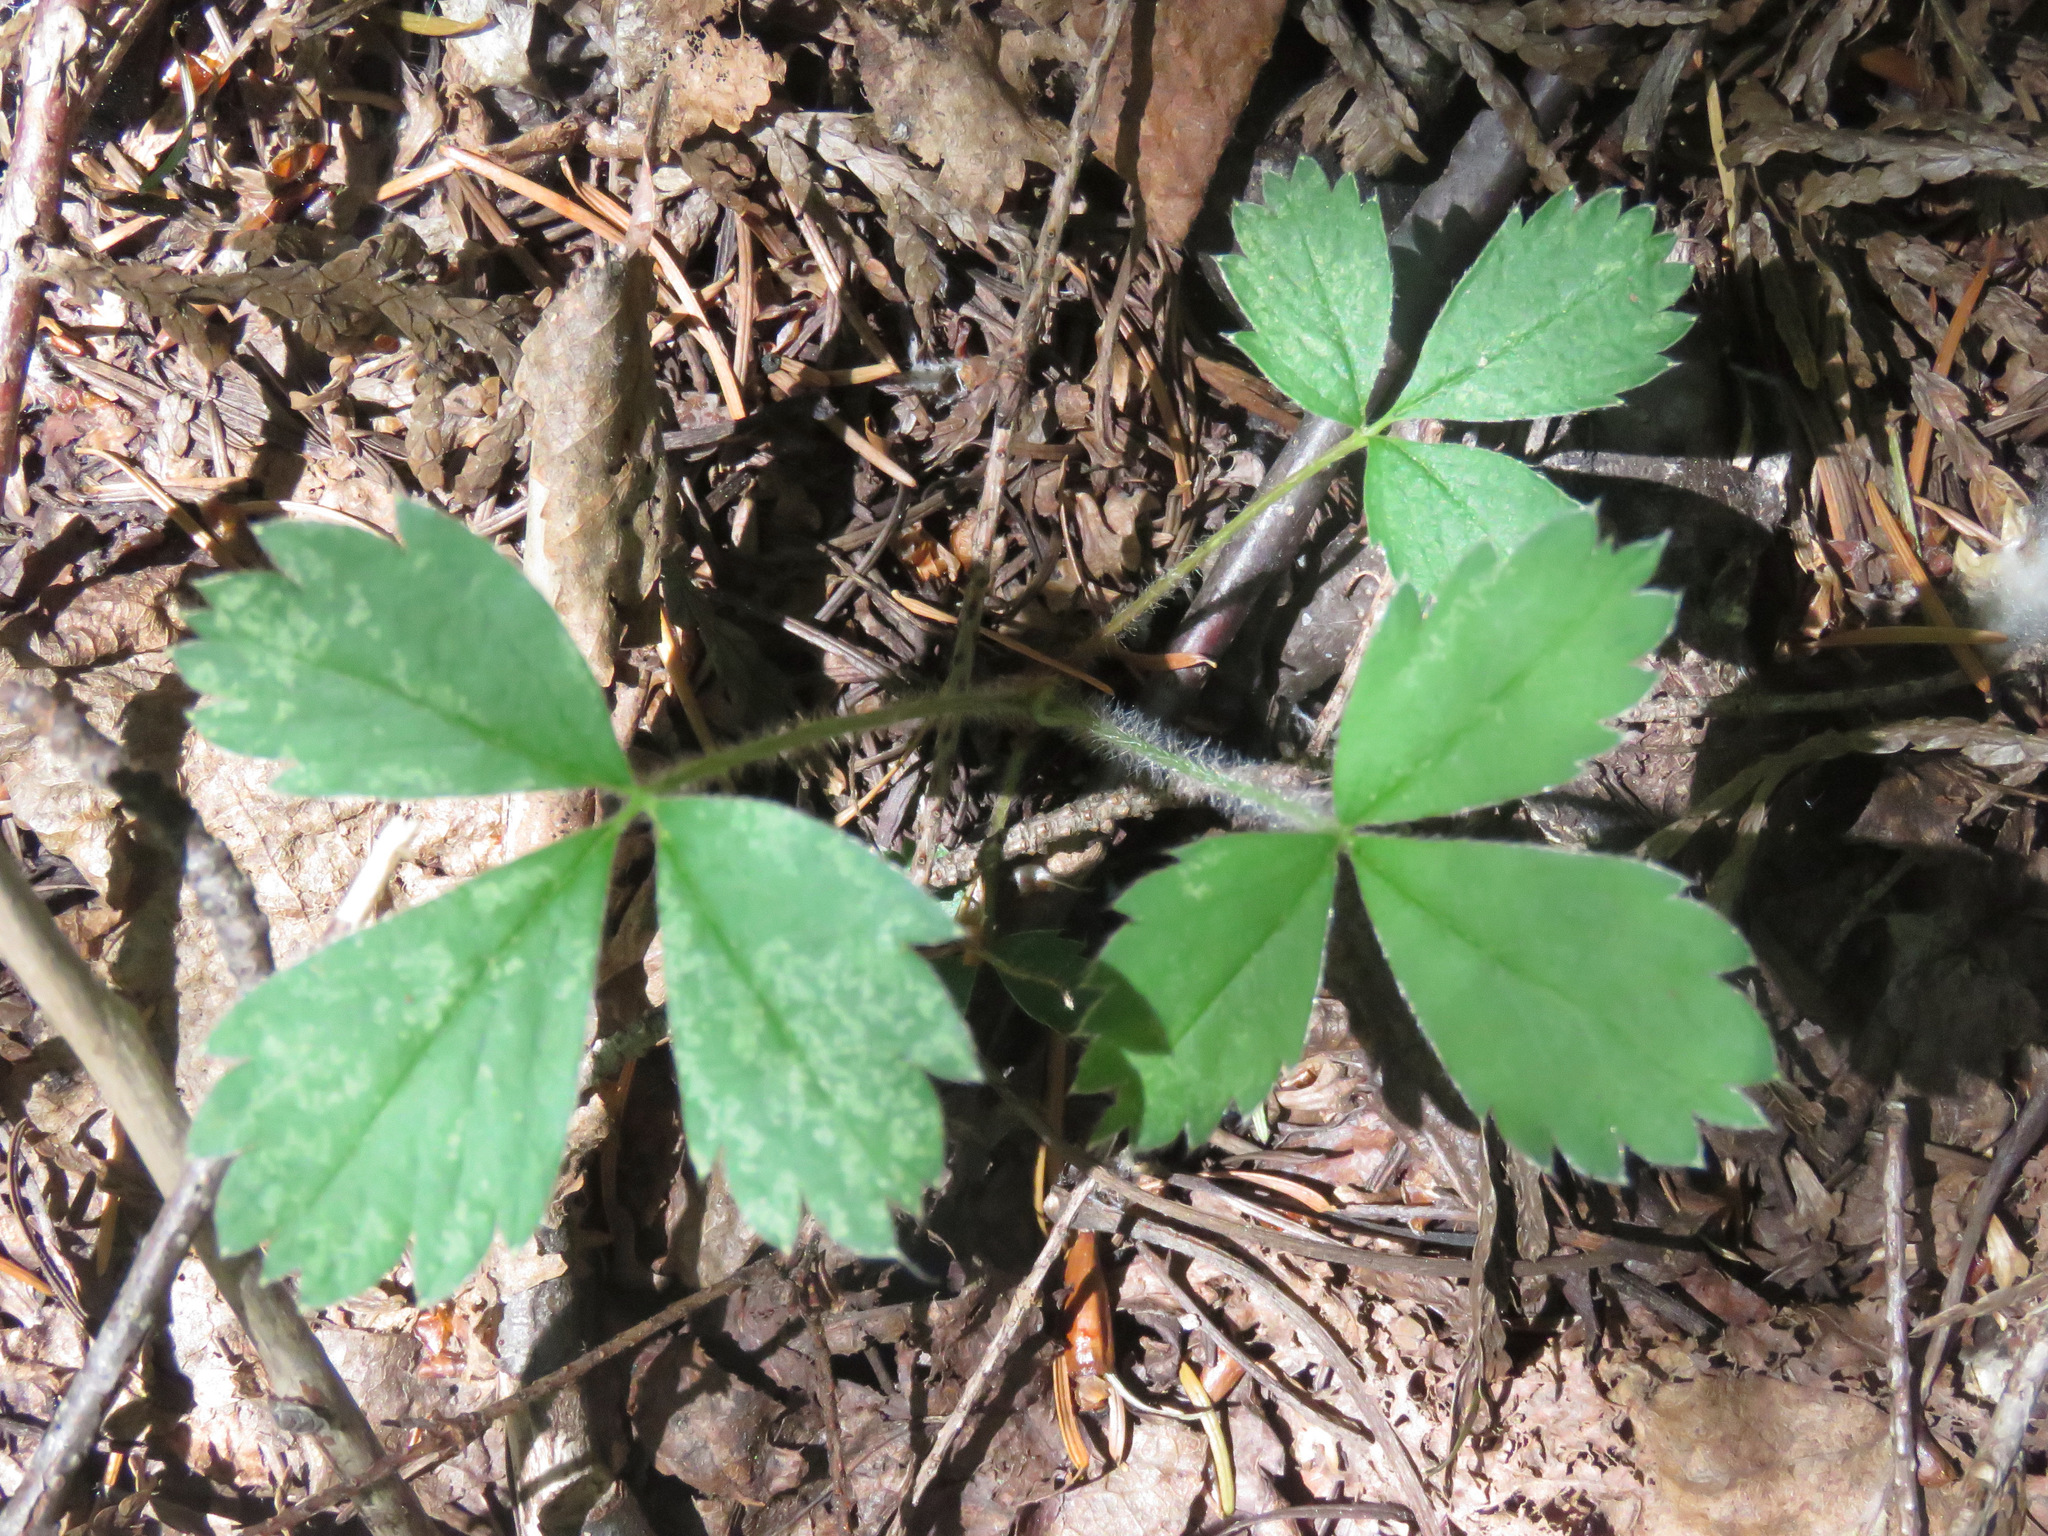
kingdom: Plantae
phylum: Tracheophyta
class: Magnoliopsida
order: Rosales
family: Rosaceae
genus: Fragaria
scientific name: Fragaria virginiana
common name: Thickleaved wild strawberry
